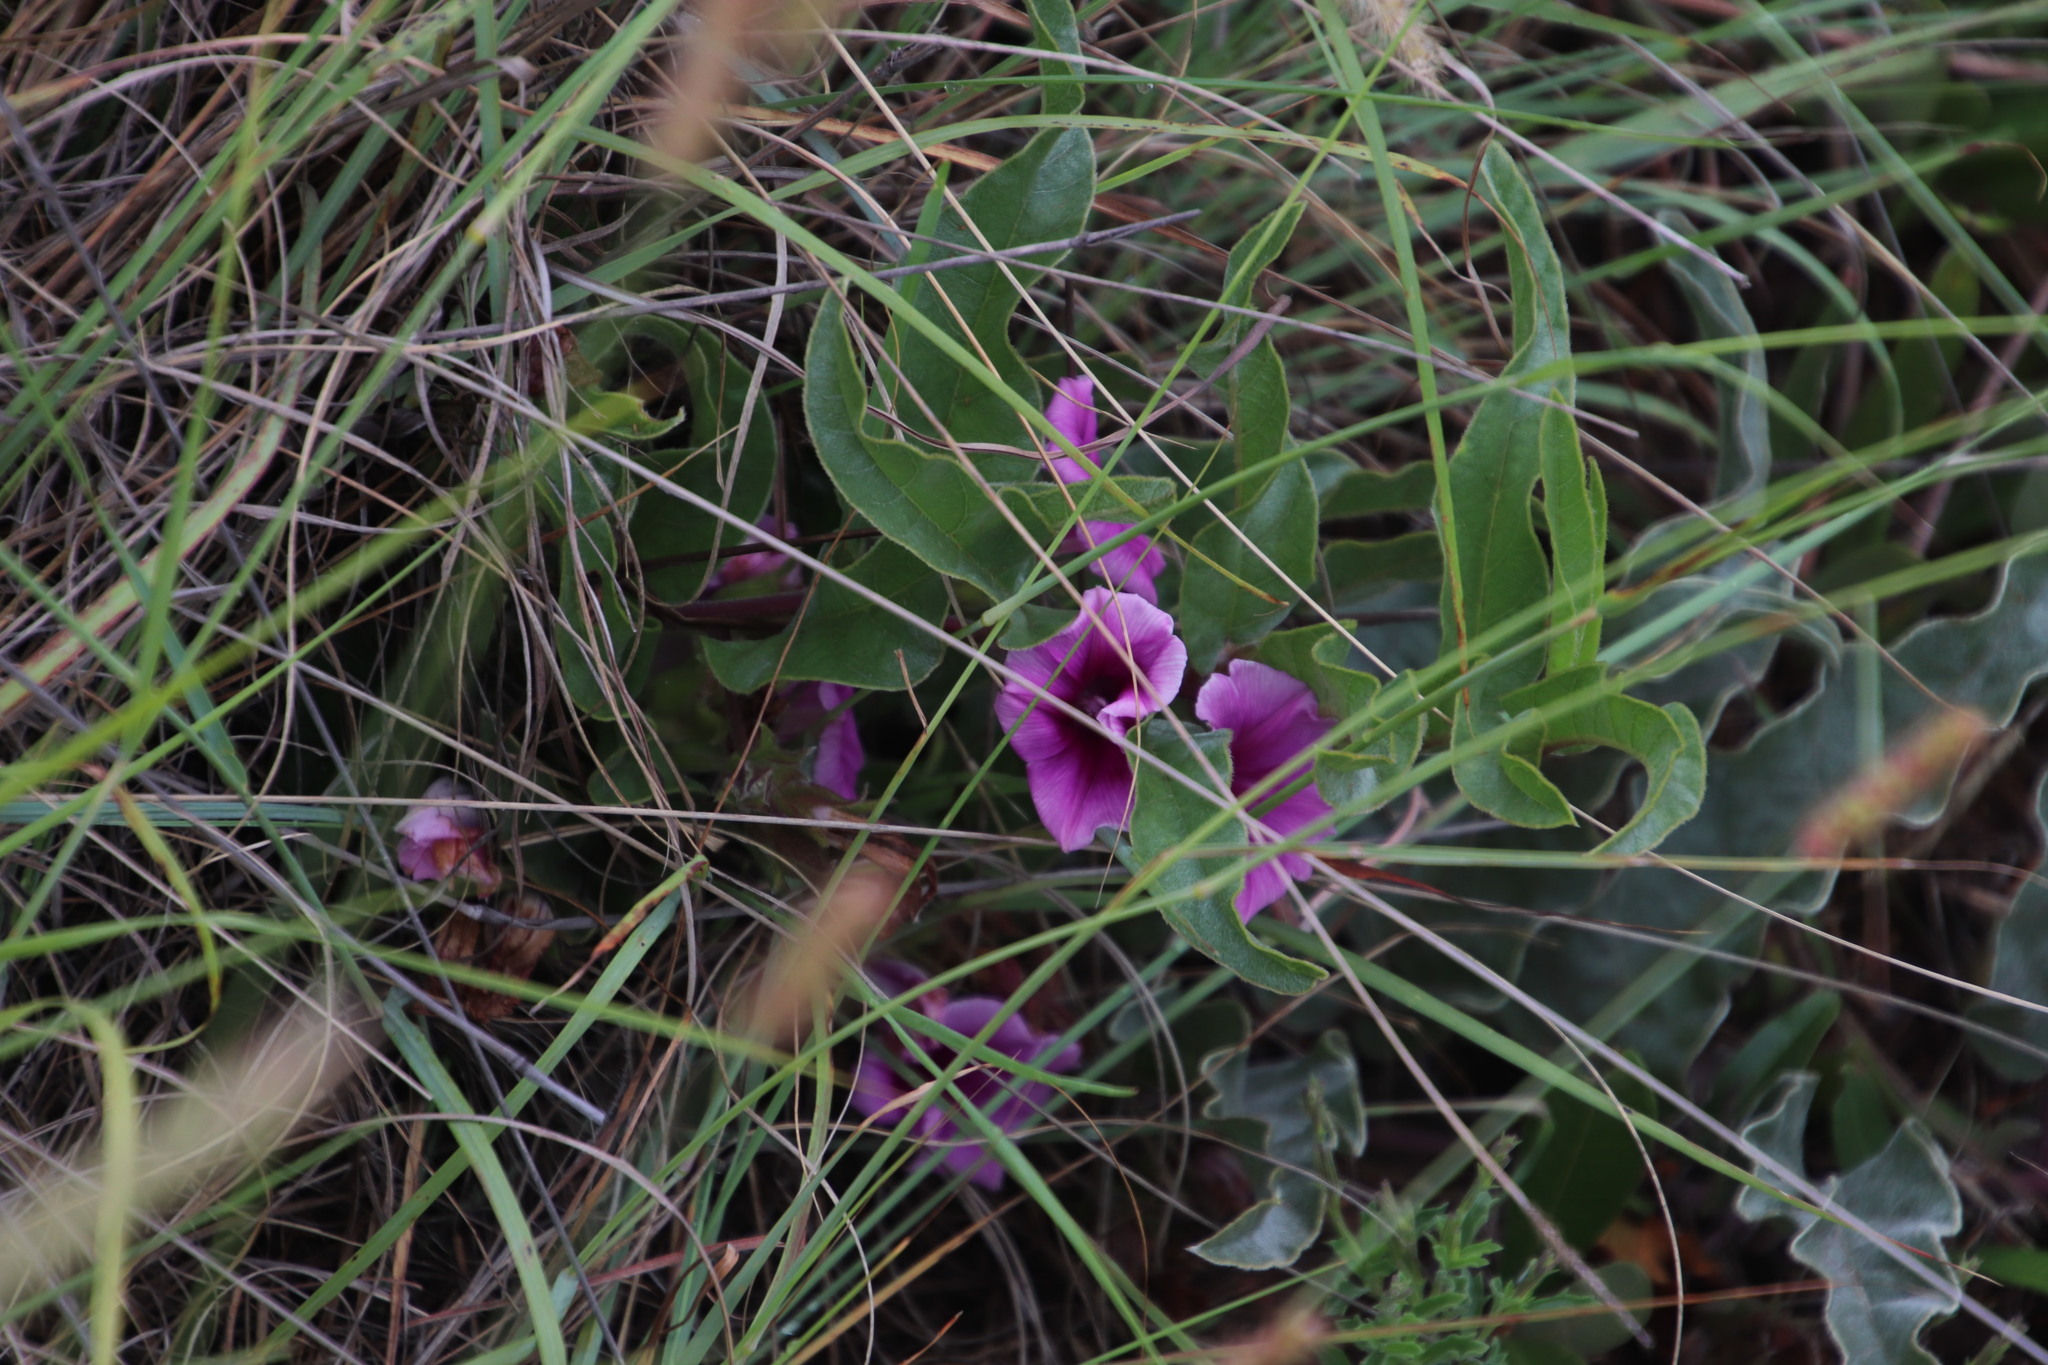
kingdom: Plantae
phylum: Tracheophyta
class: Magnoliopsida
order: Solanales
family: Convolvulaceae
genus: Ipomoea
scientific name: Ipomoea ommanneyi
